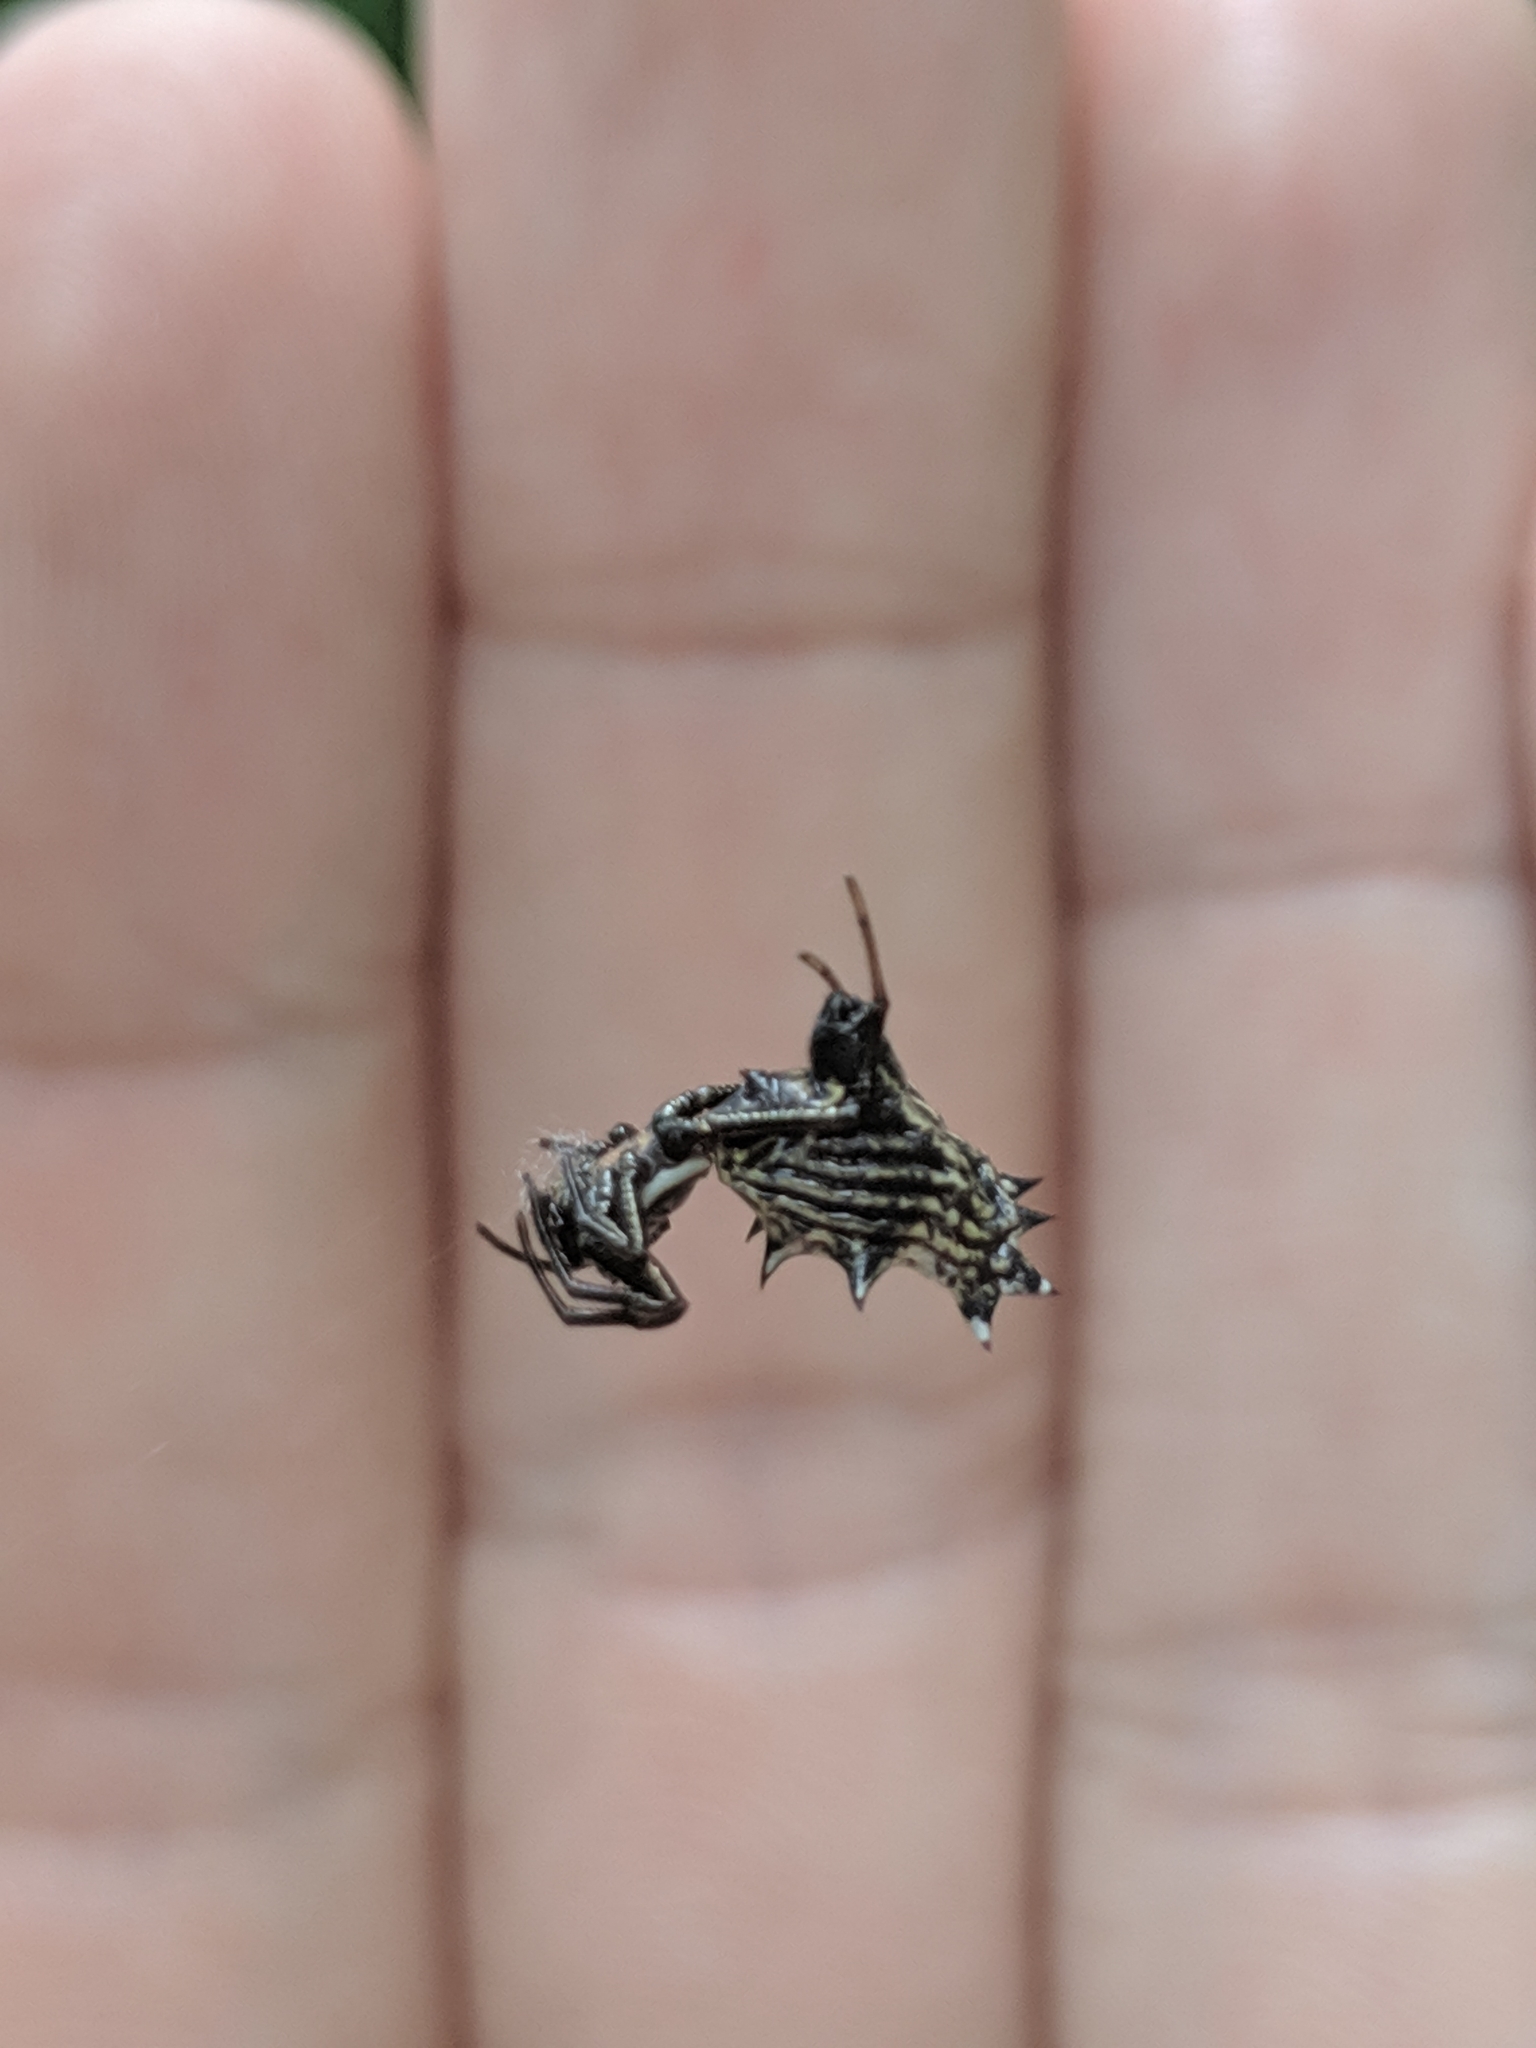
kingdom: Animalia
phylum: Arthropoda
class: Arachnida
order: Araneae
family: Araneidae
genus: Micrathena
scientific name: Micrathena gracilis
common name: Orb weavers
